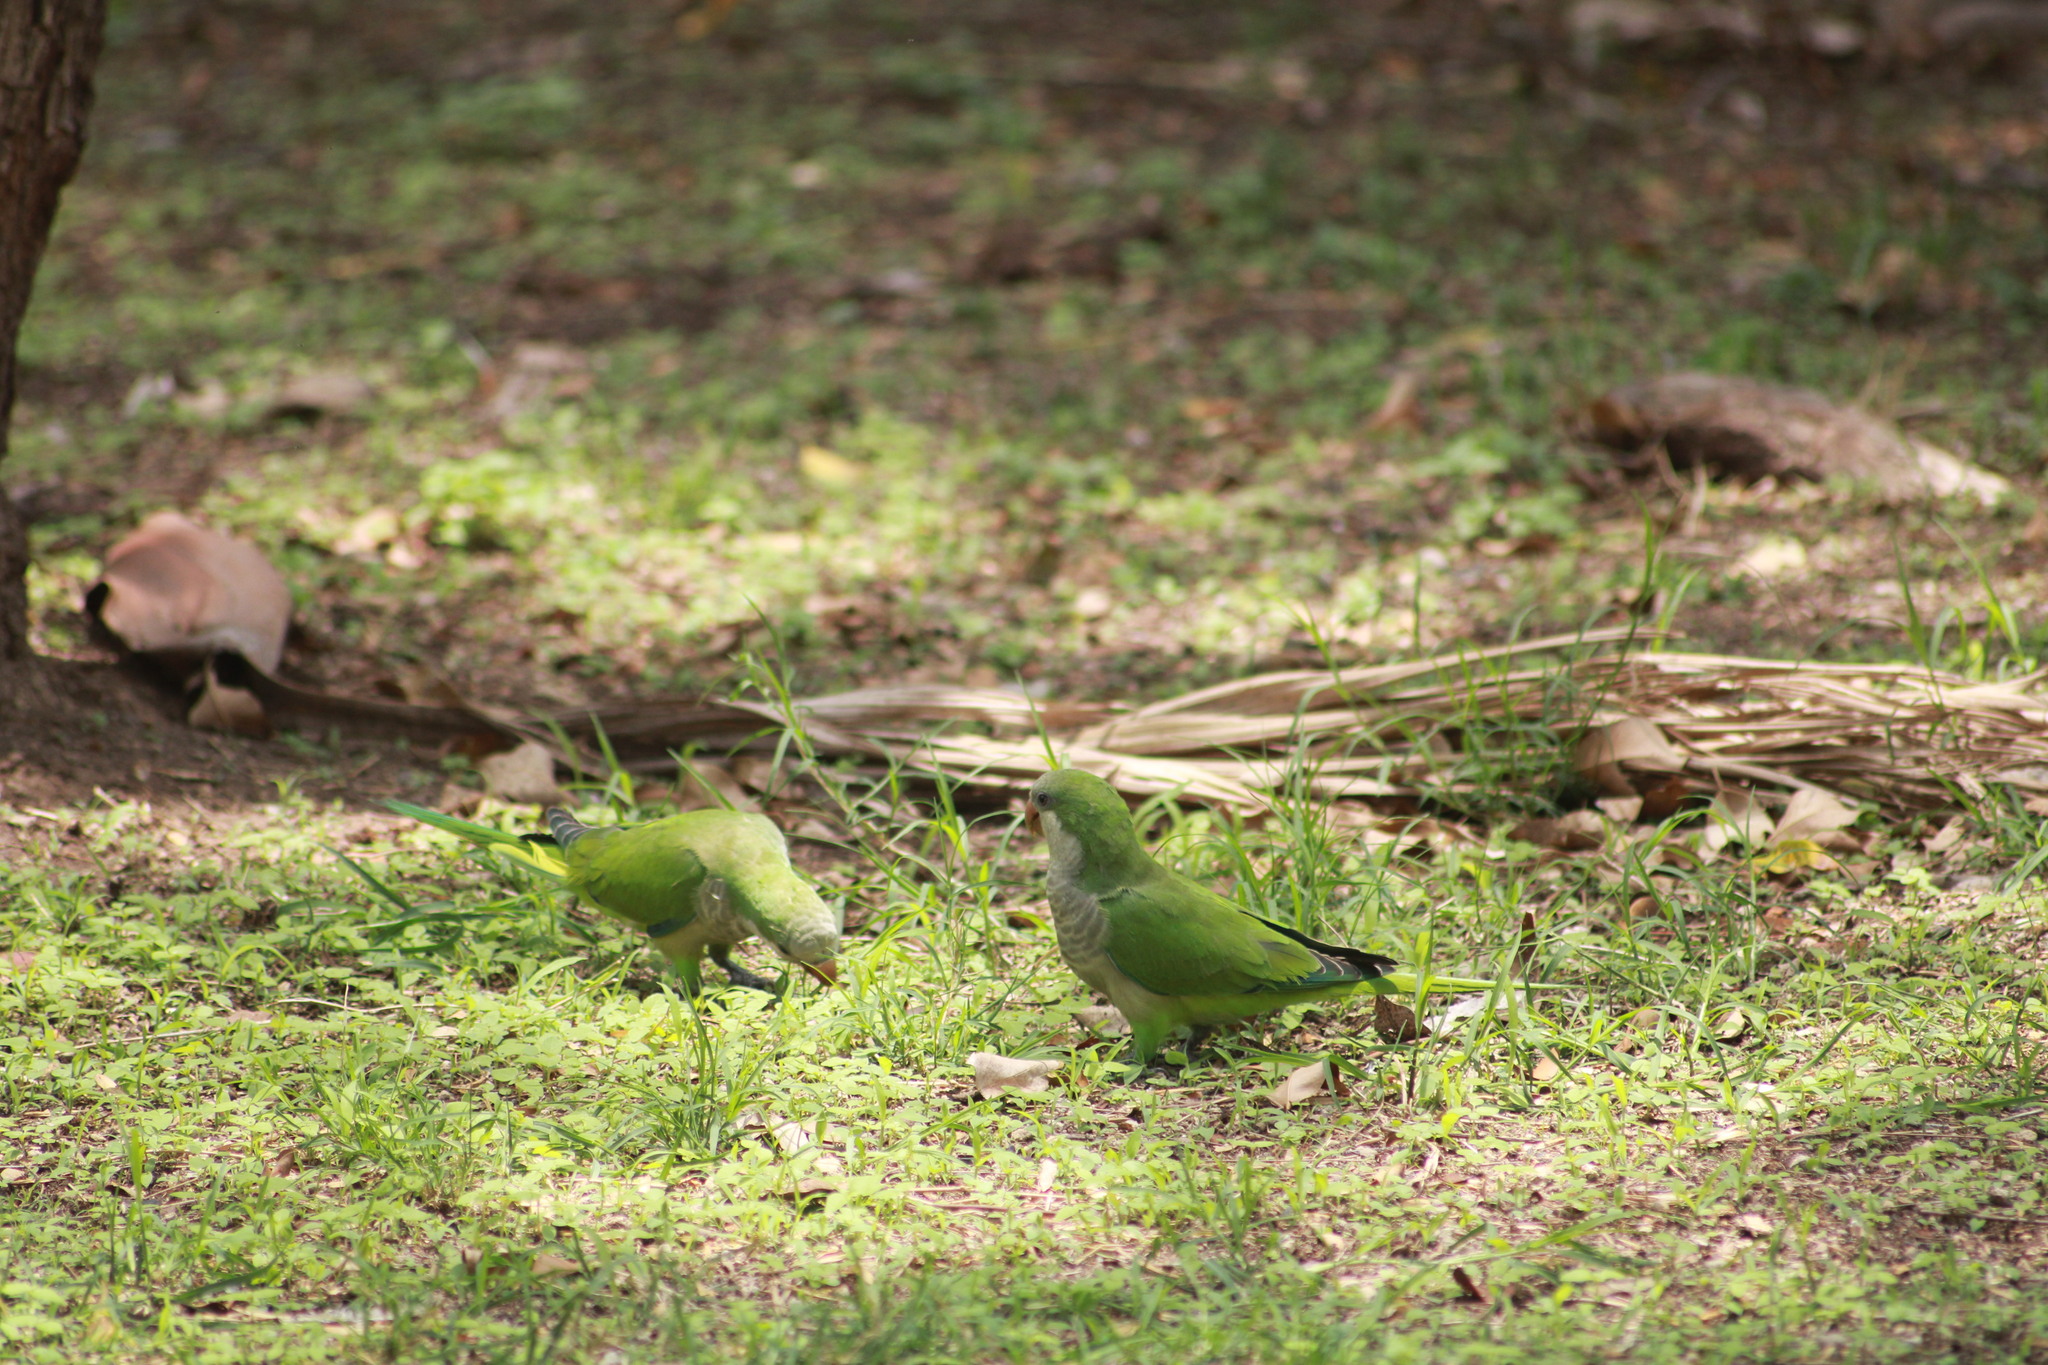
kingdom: Animalia
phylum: Chordata
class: Aves
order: Psittaciformes
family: Psittacidae
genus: Myiopsitta
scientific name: Myiopsitta monachus
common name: Monk parakeet
